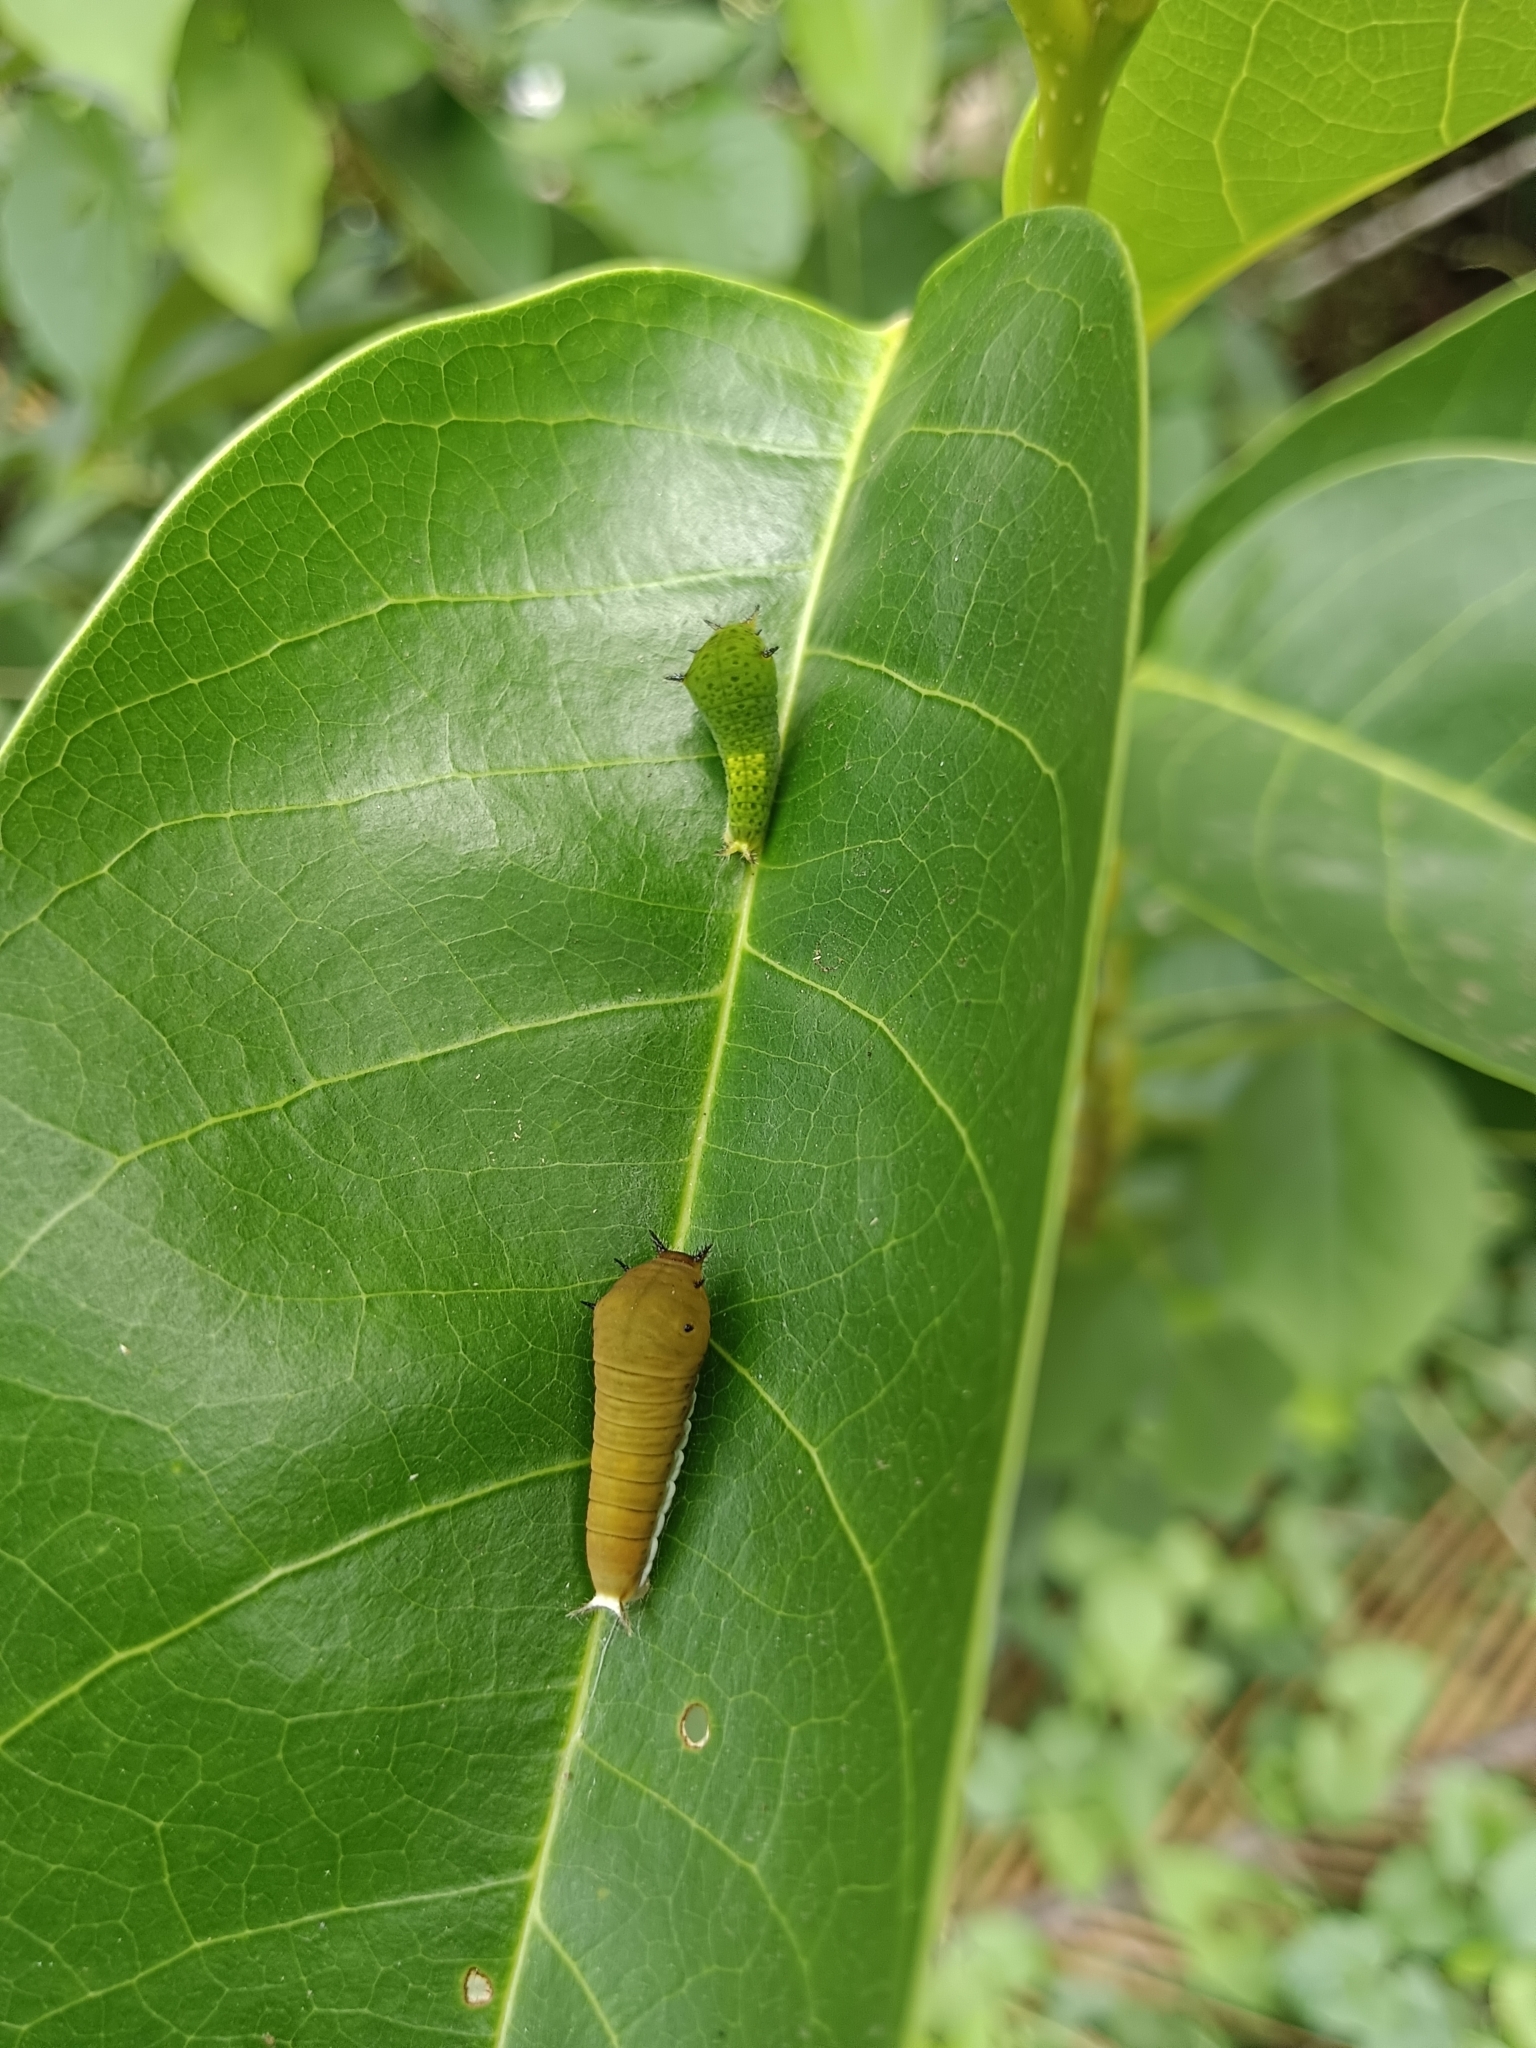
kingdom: Animalia
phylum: Arthropoda
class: Insecta
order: Lepidoptera
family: Papilionidae
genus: Graphium
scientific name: Graphium doson
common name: Common jay
